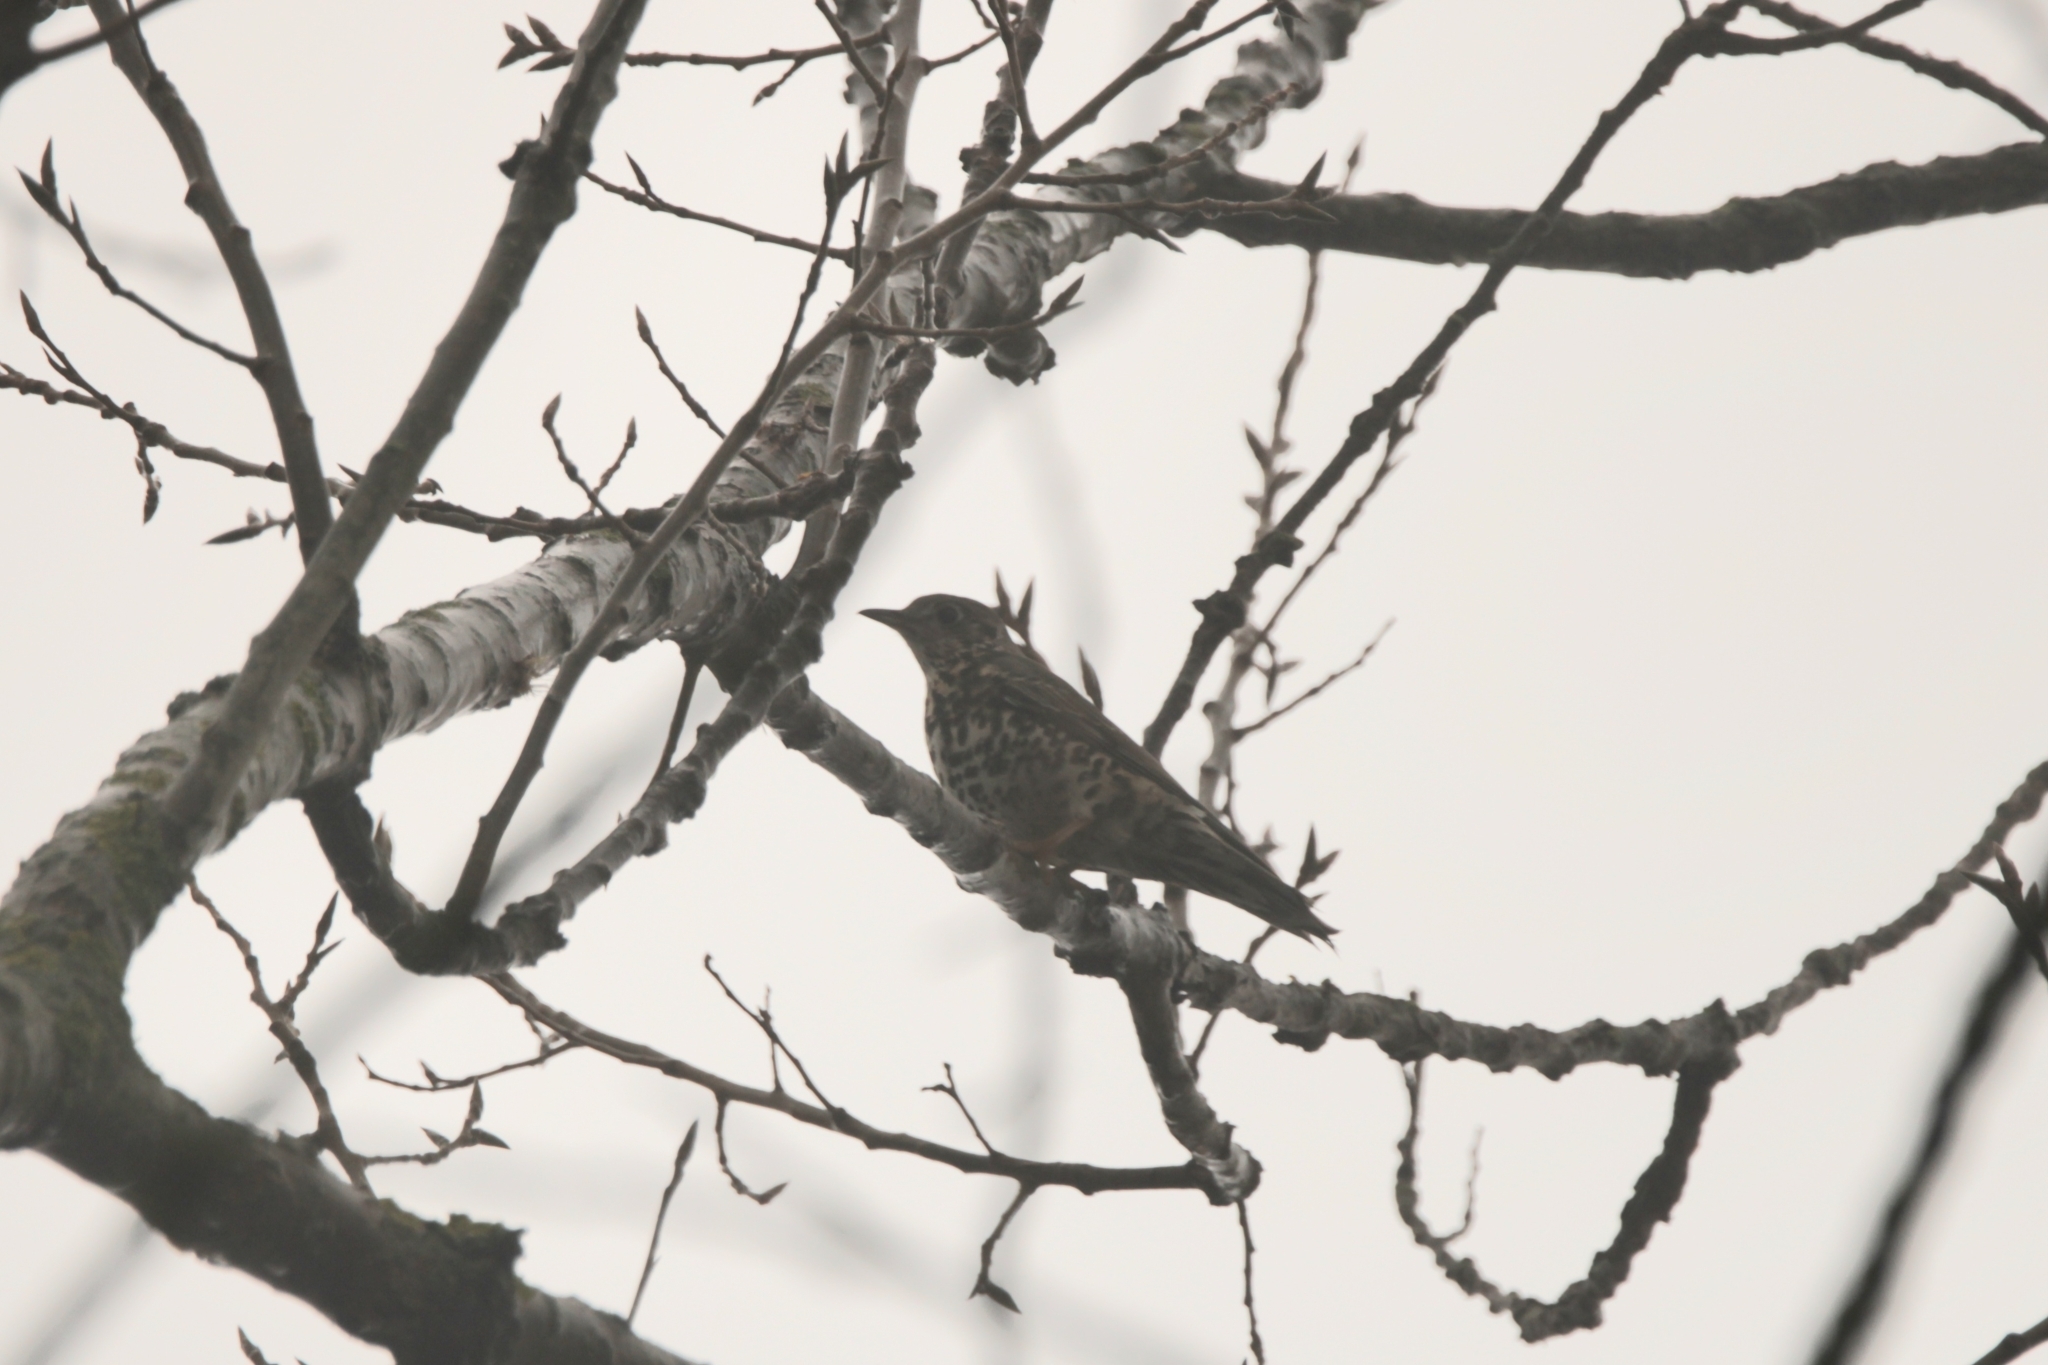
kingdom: Animalia
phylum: Chordata
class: Aves
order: Passeriformes
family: Turdidae
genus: Turdus
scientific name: Turdus viscivorus
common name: Mistle thrush
